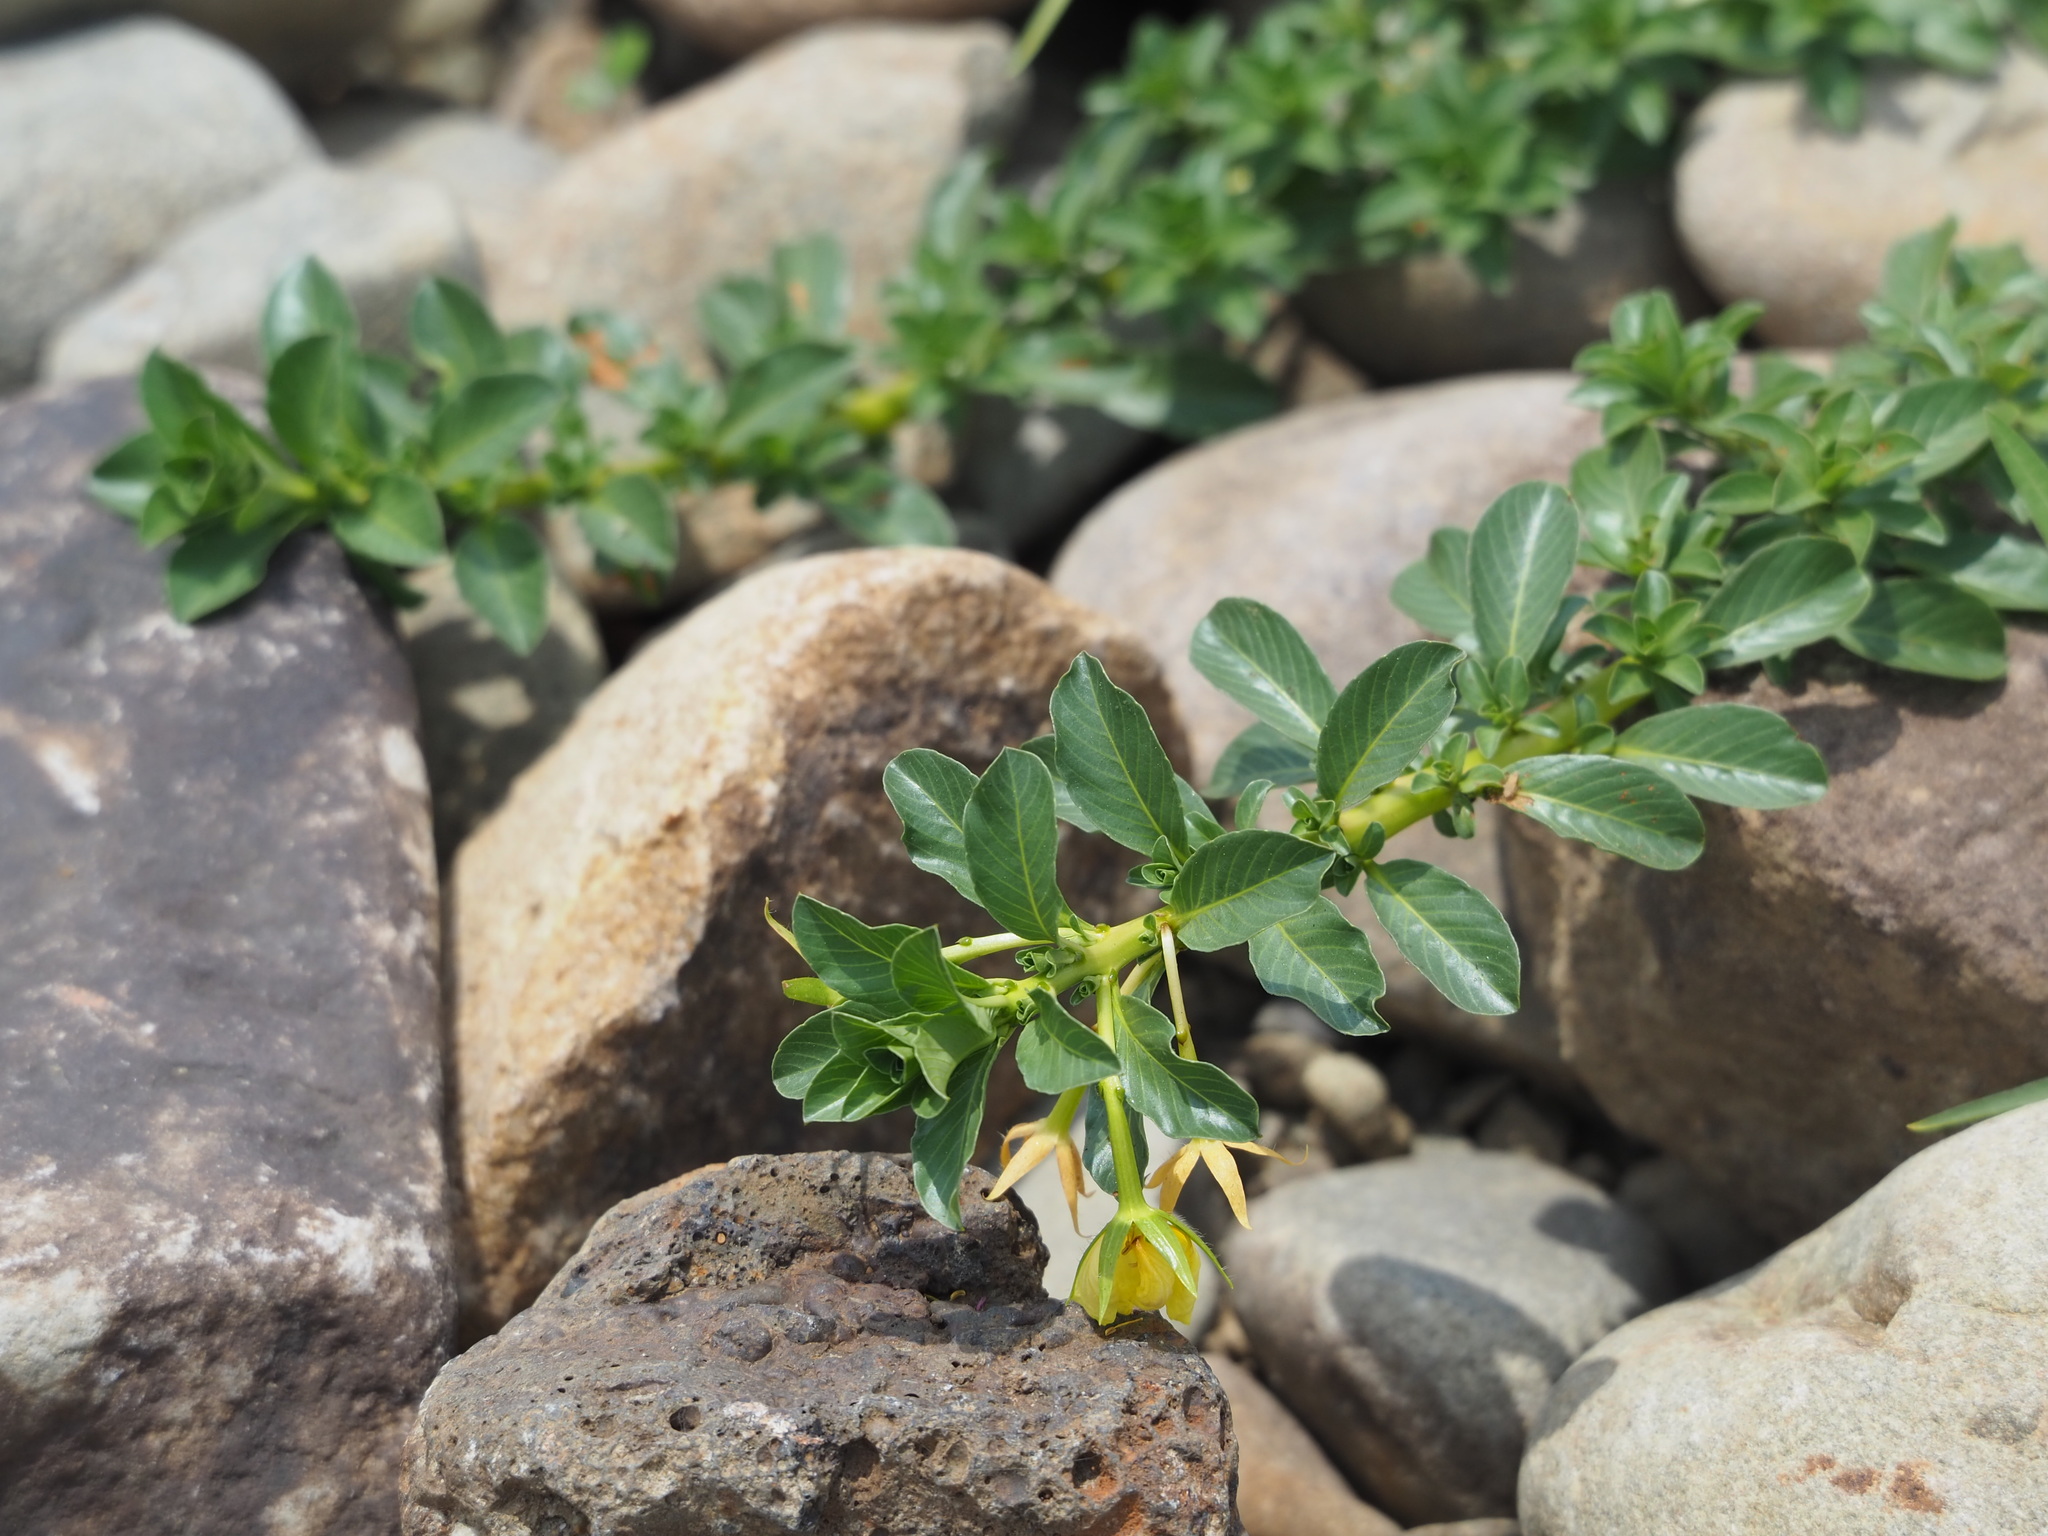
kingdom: Plantae
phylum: Tracheophyta
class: Magnoliopsida
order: Myrtales
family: Onagraceae
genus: Ludwigia
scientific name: Ludwigia taiwanensis
